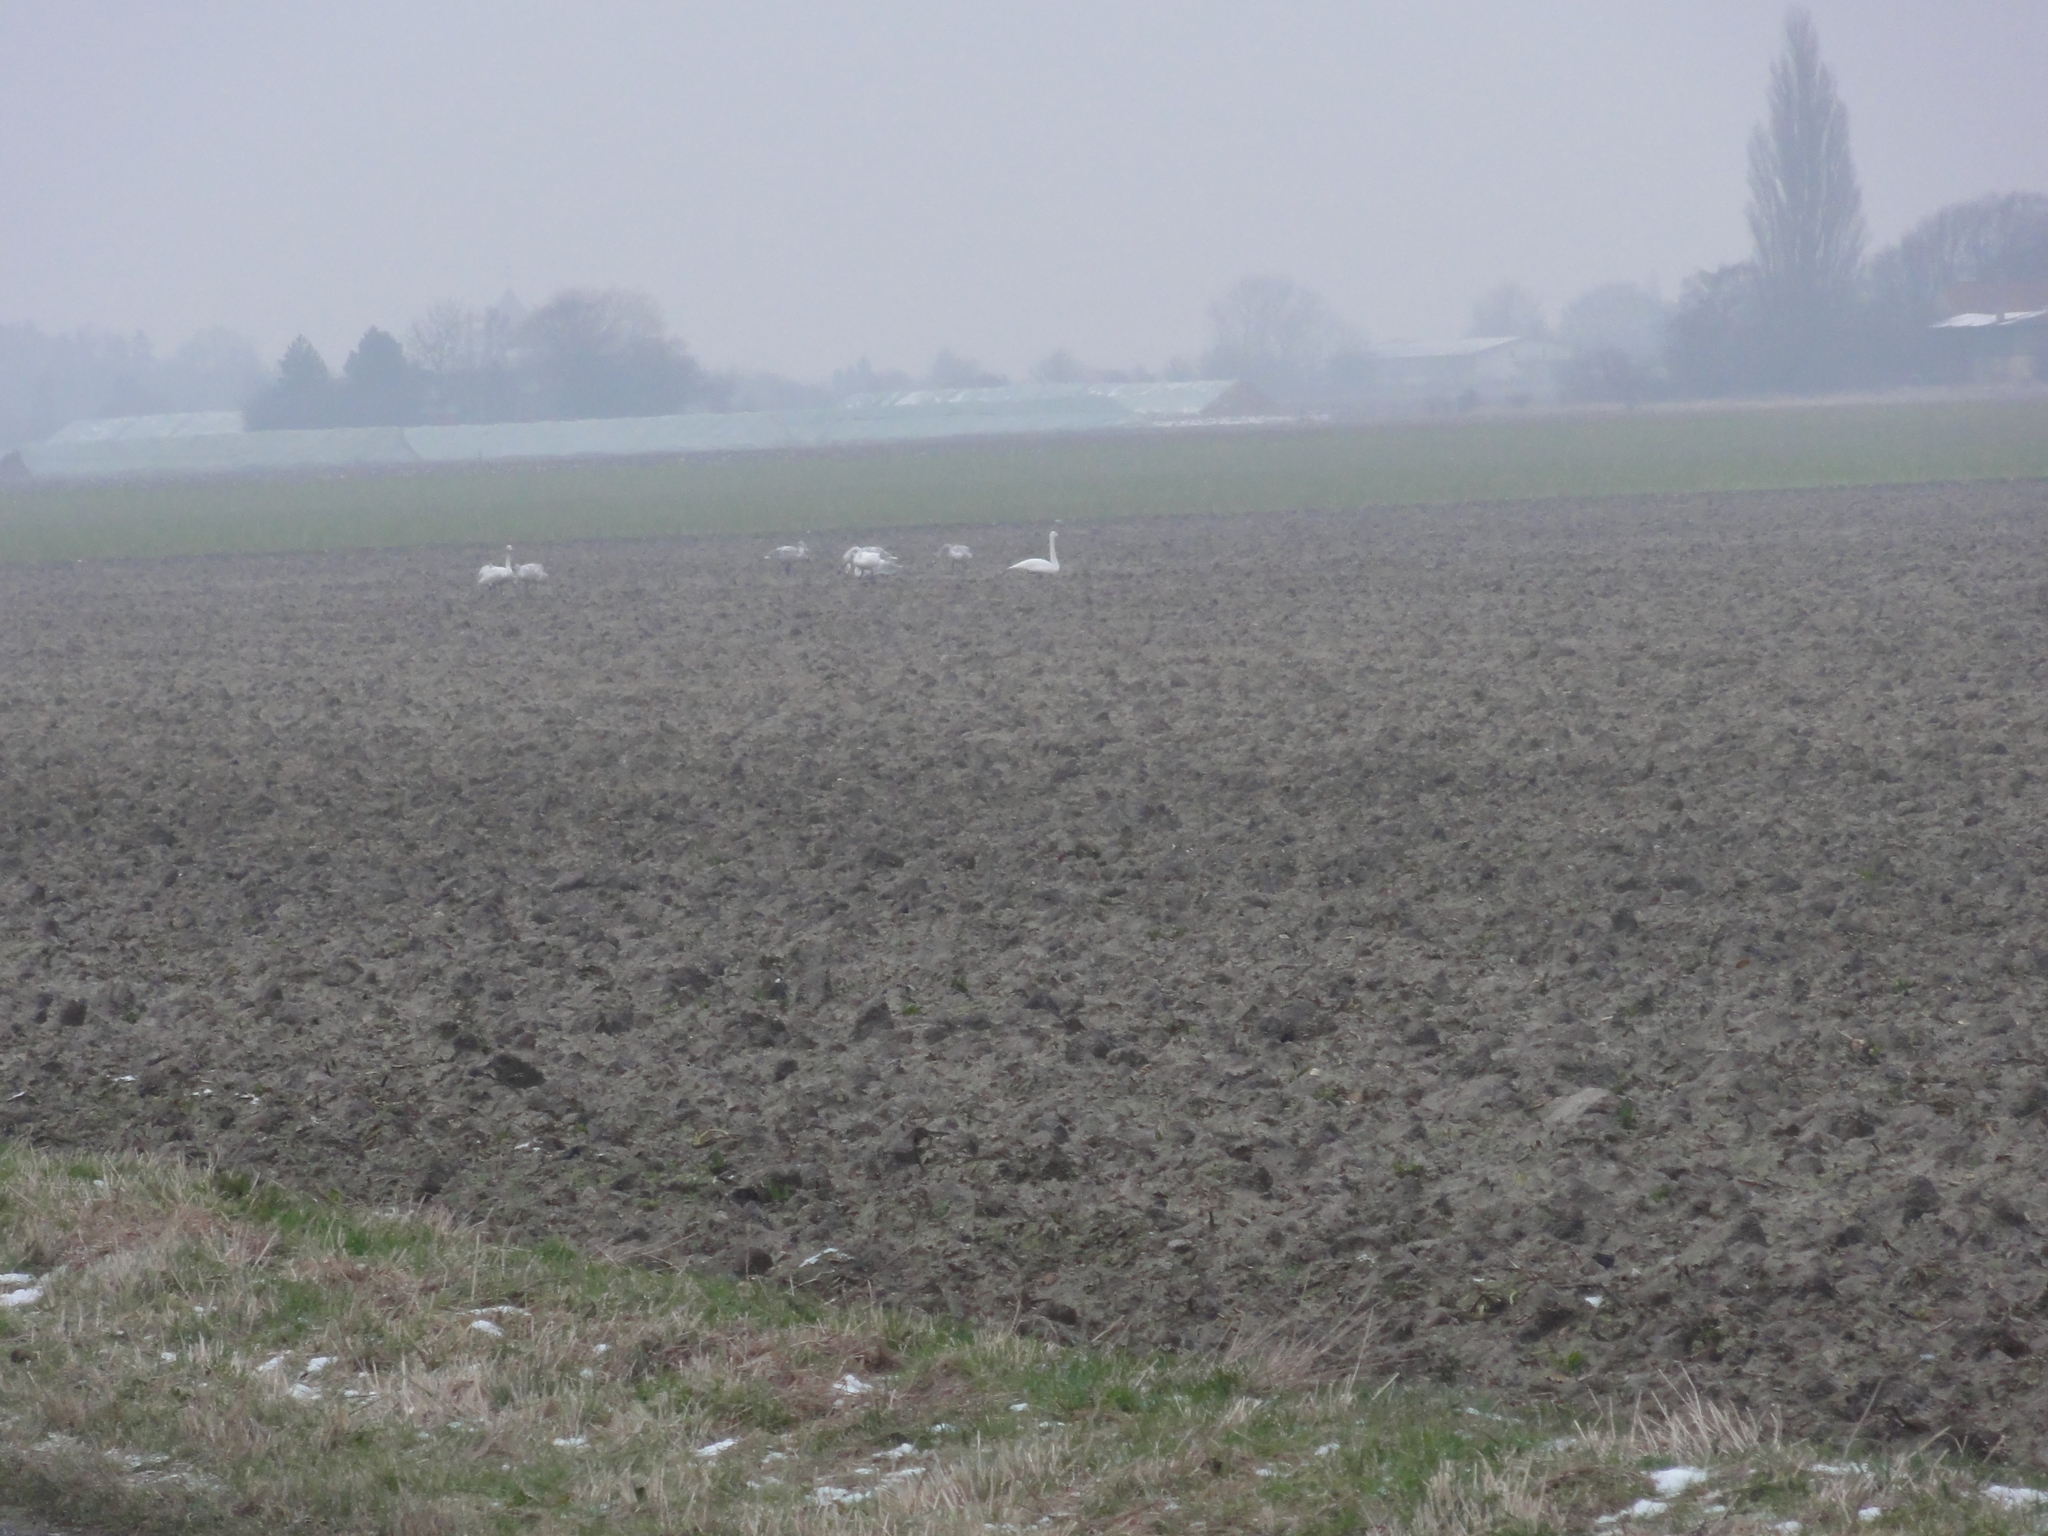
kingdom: Animalia
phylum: Chordata
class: Aves
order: Anseriformes
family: Anatidae
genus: Cygnus
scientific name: Cygnus cygnus
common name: Whooper swan
